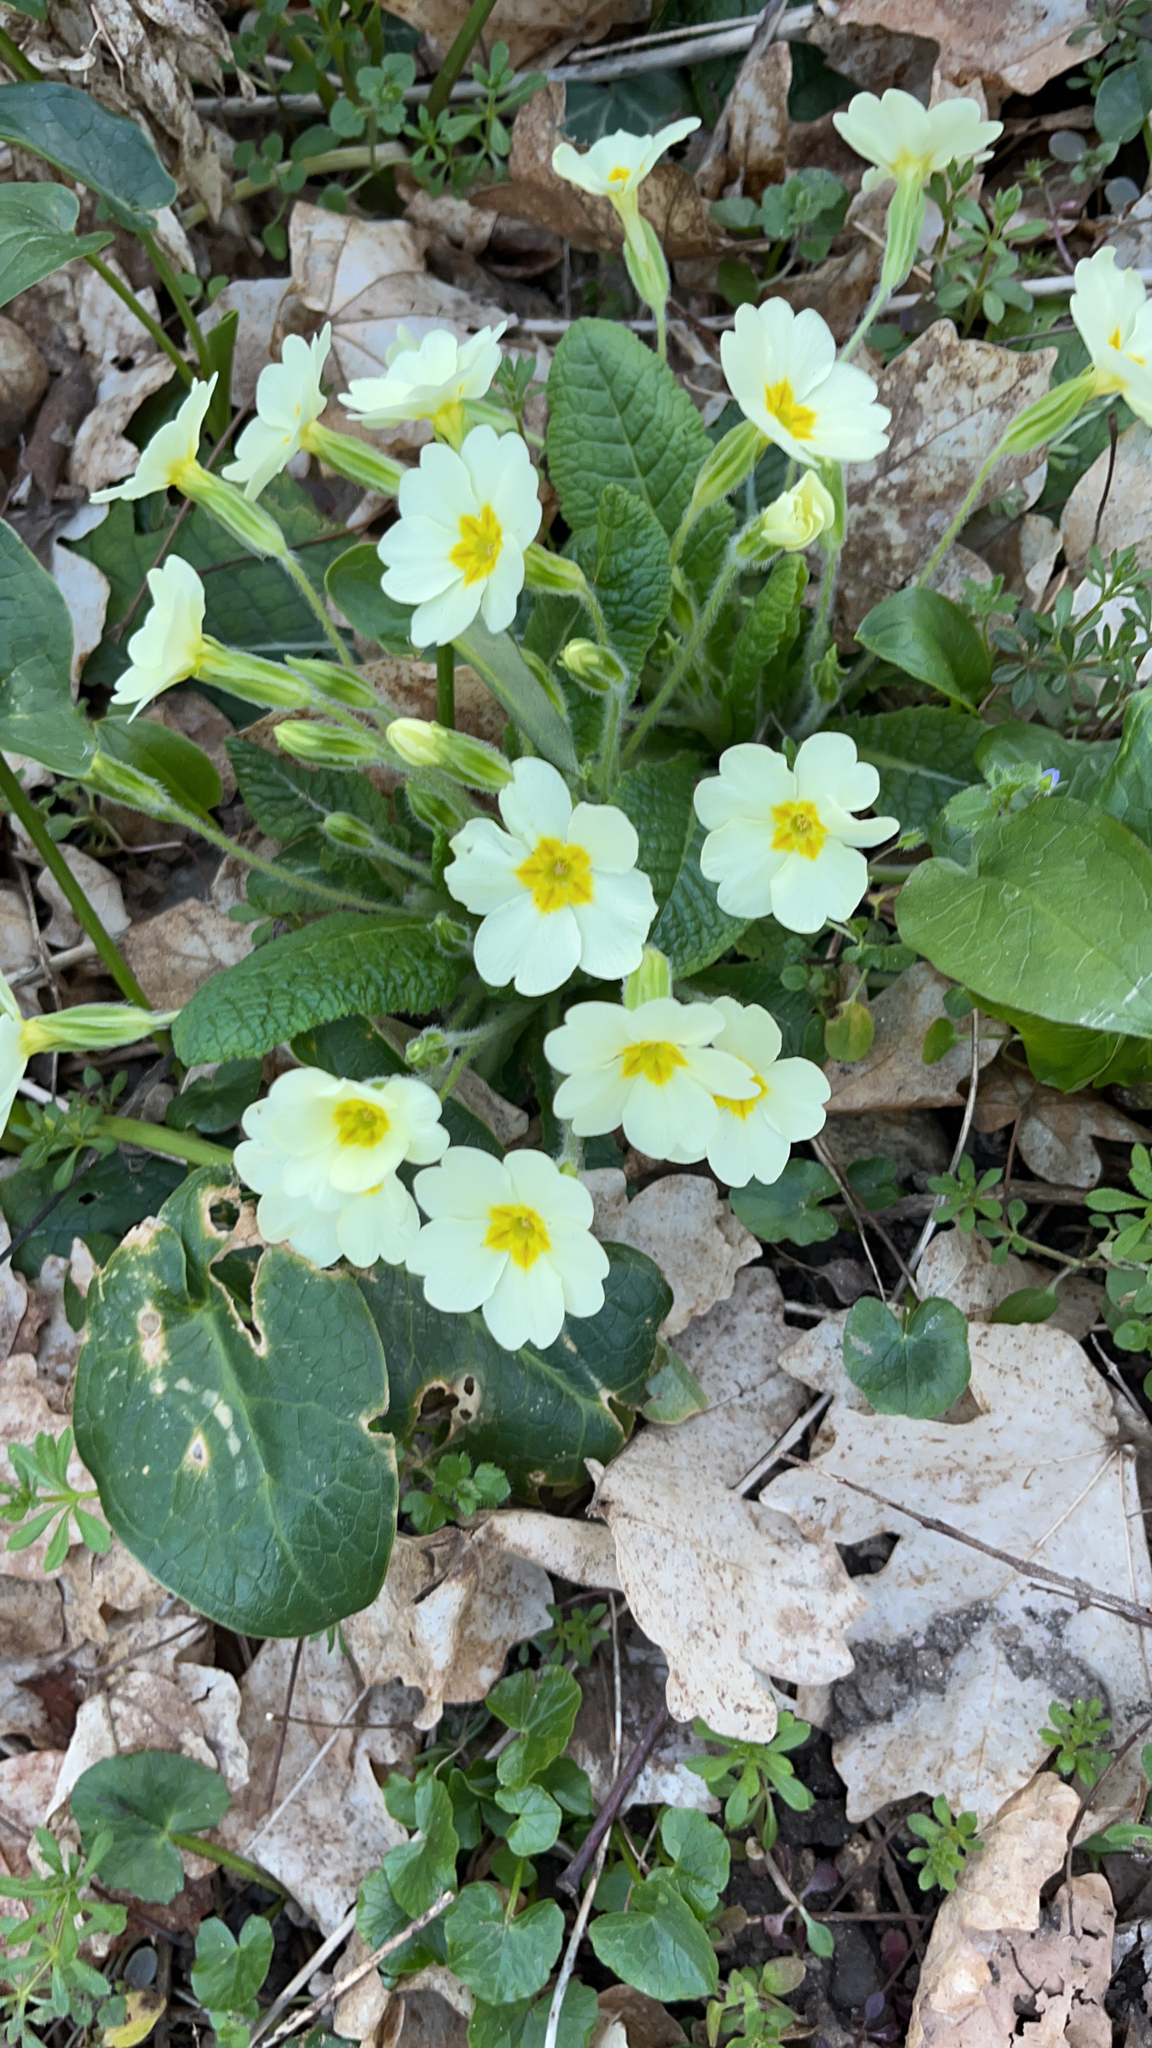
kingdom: Plantae
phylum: Tracheophyta
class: Magnoliopsida
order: Ericales
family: Primulaceae
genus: Primula
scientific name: Primula vulgaris
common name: Primrose
